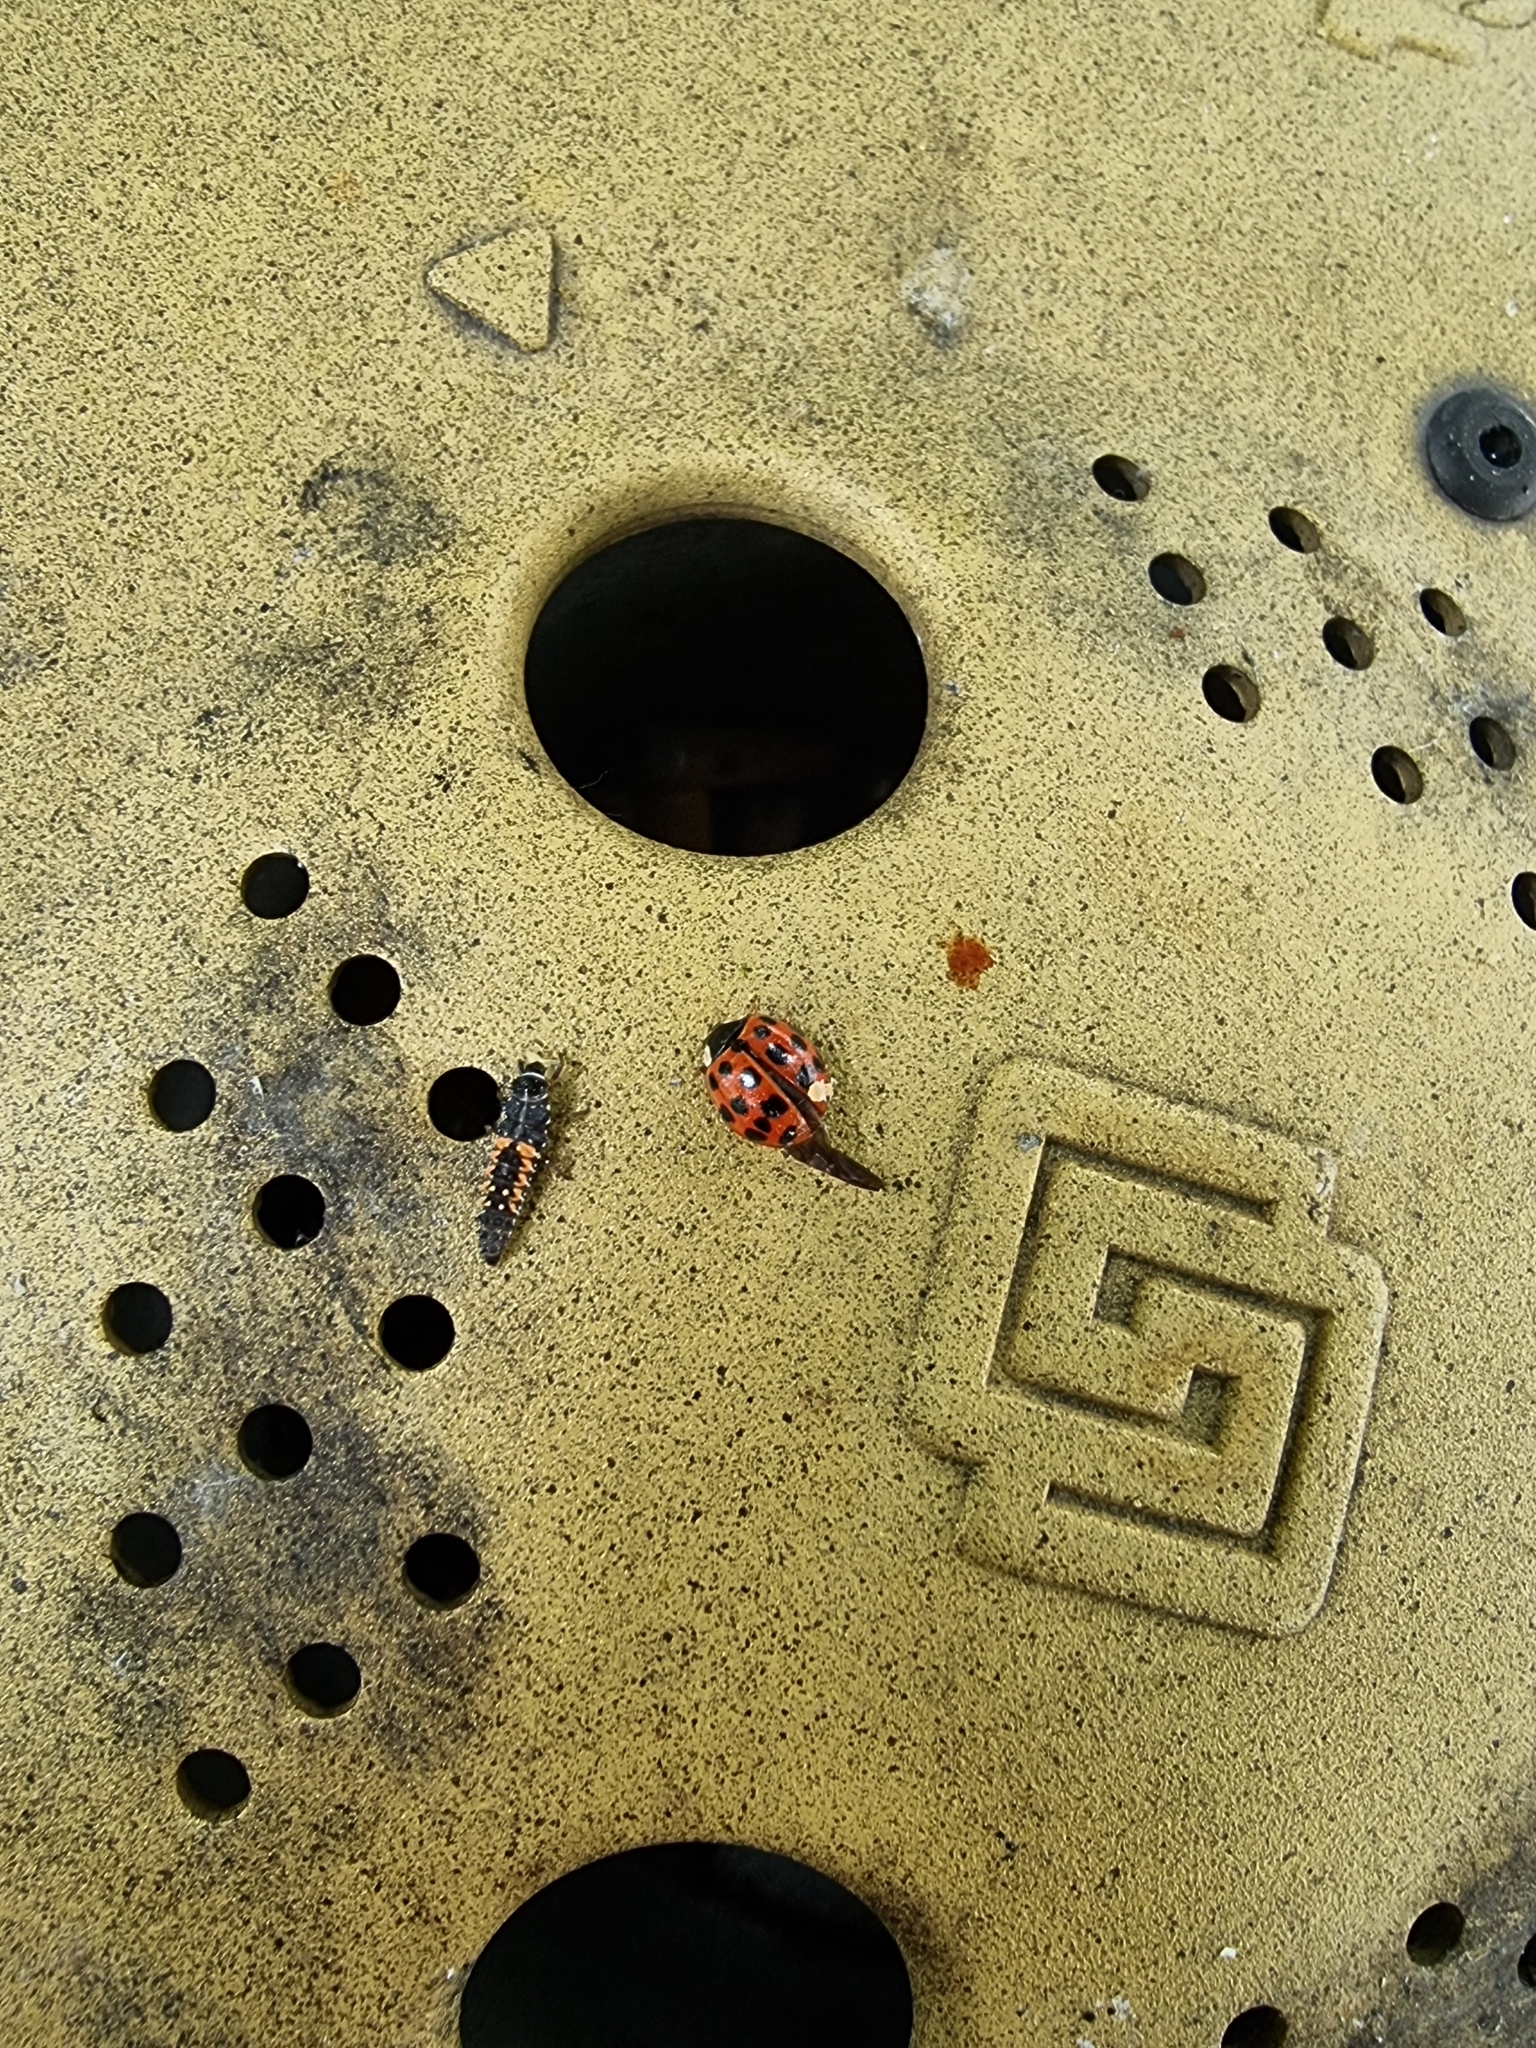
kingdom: Animalia
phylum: Arthropoda
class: Insecta
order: Coleoptera
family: Coccinellidae
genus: Harmonia
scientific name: Harmonia axyridis
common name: Harlequin ladybird
